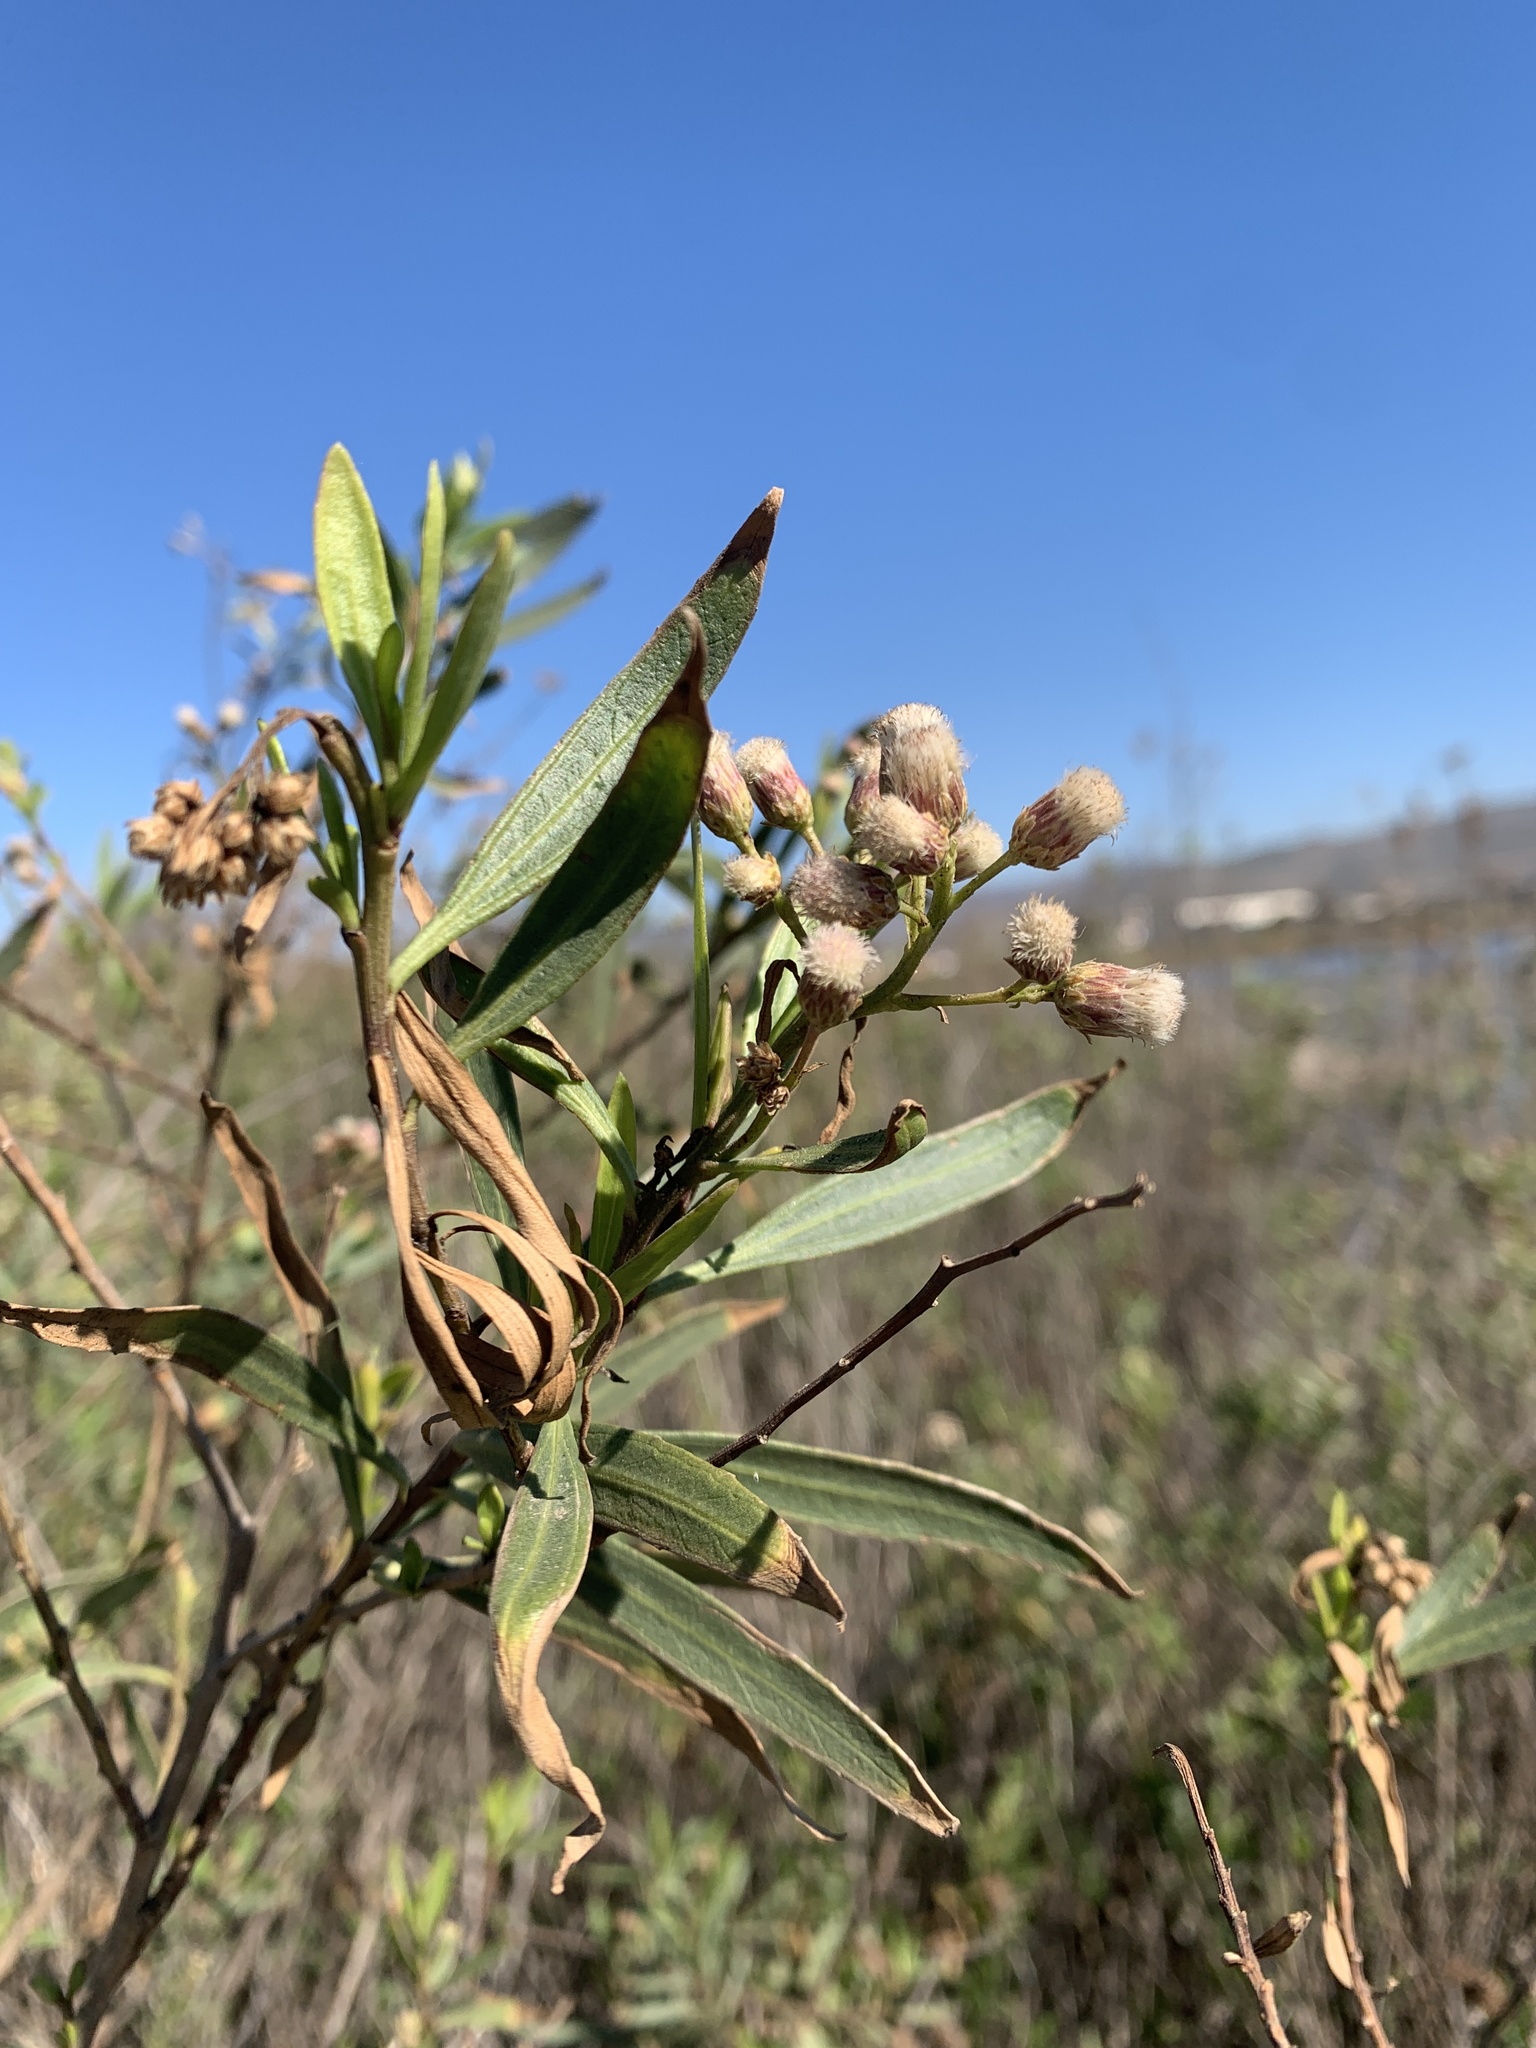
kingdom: Plantae
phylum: Tracheophyta
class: Magnoliopsida
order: Asterales
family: Asteraceae
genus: Baccharis
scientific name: Baccharis salicifolia
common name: Sticky baccharis
